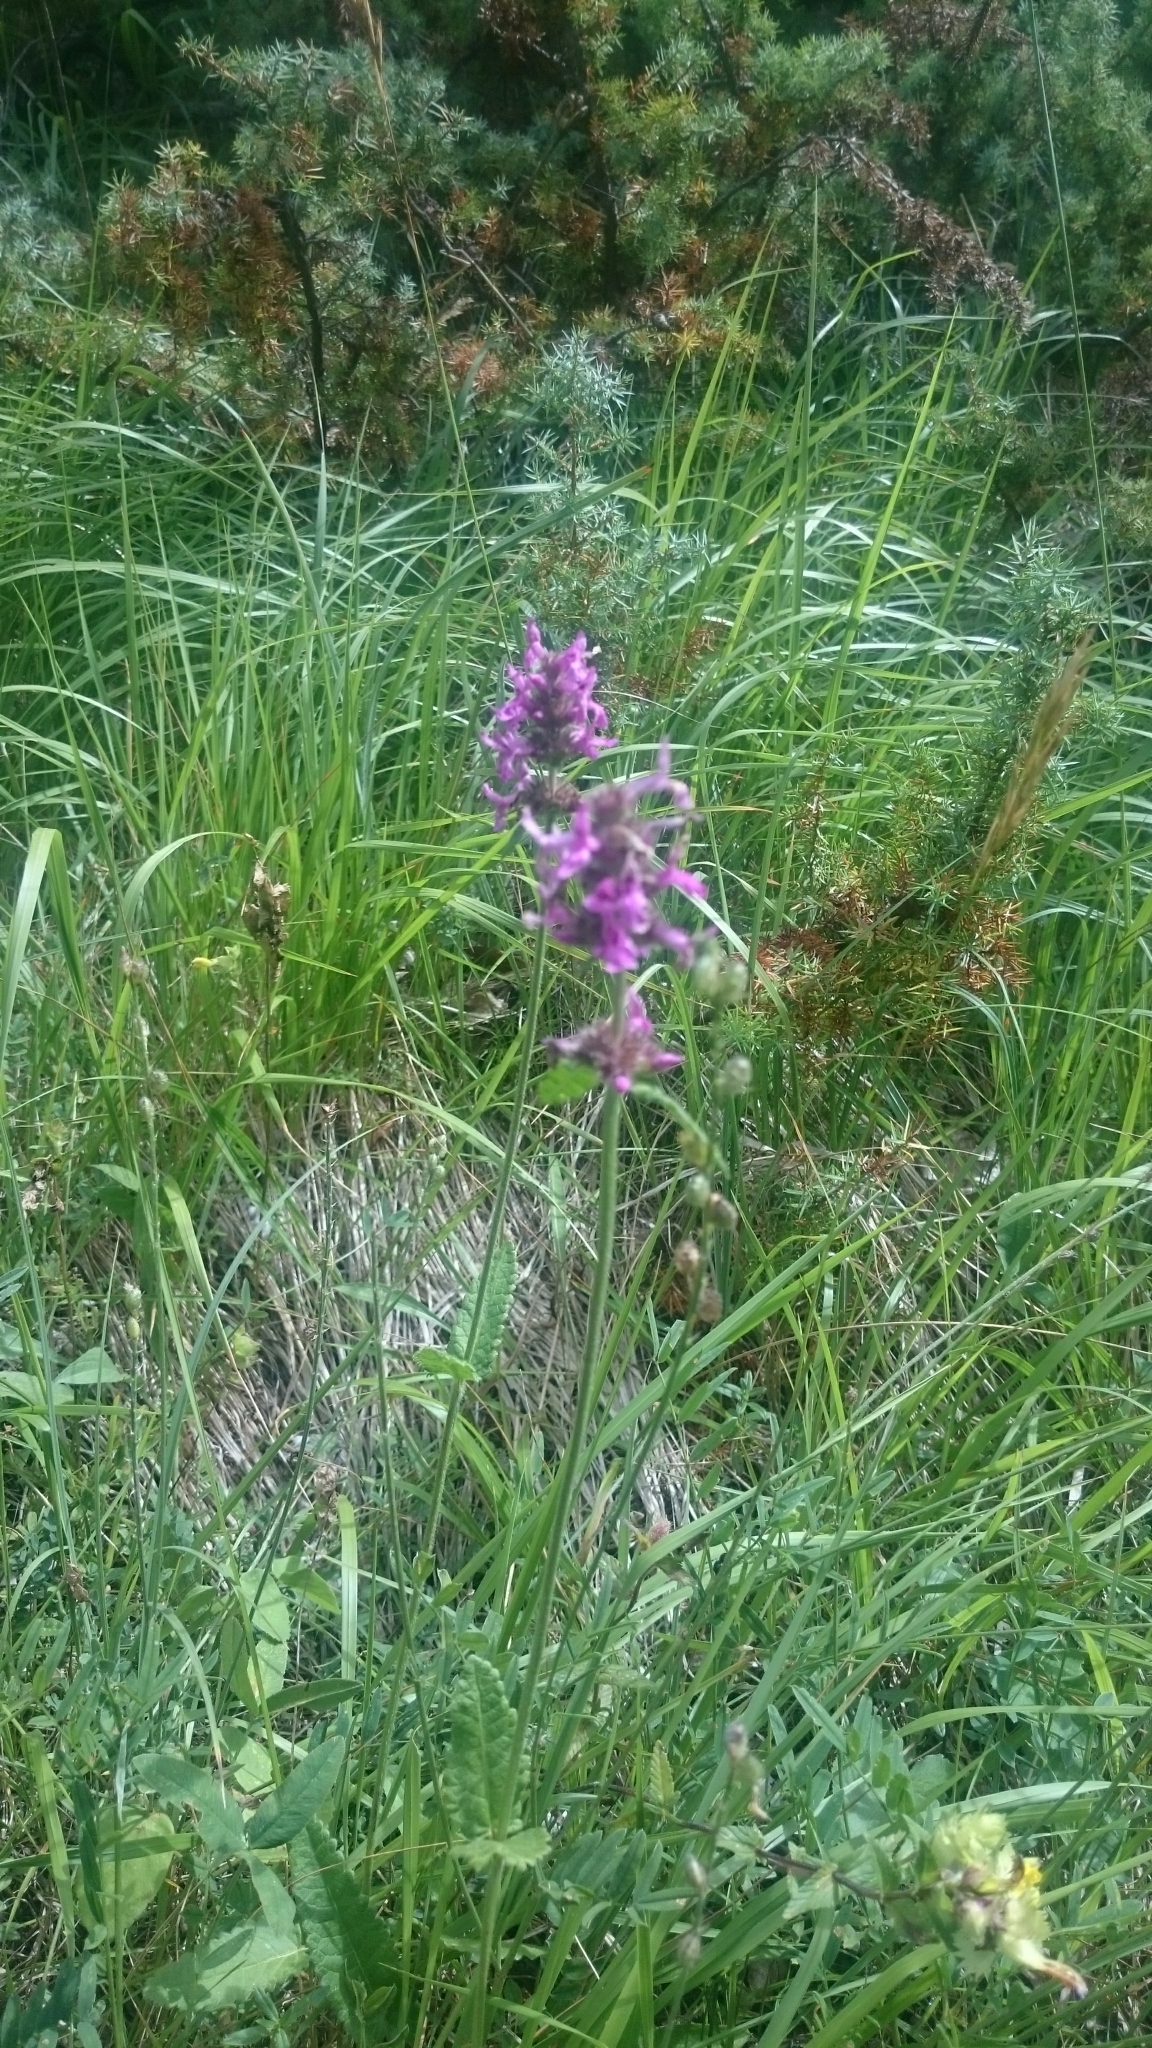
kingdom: Plantae
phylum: Tracheophyta
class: Magnoliopsida
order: Lamiales
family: Lamiaceae
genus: Betonica
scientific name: Betonica officinalis
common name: Bishop's-wort
